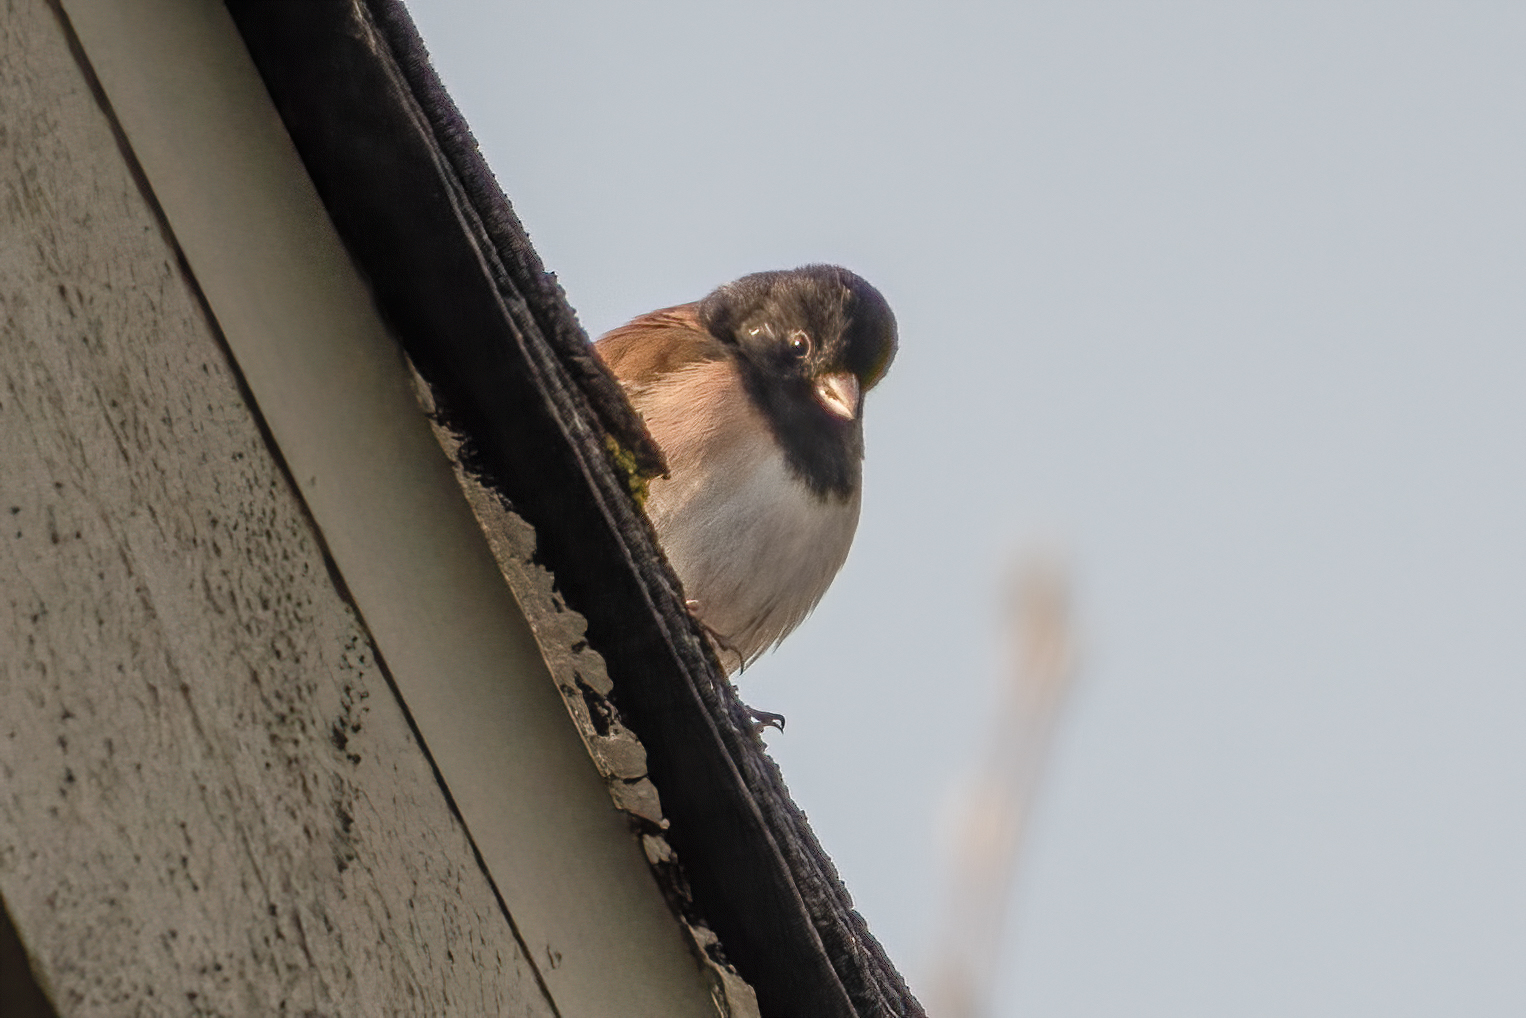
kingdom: Animalia
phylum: Chordata
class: Aves
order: Passeriformes
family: Passerellidae
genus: Junco
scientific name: Junco hyemalis
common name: Dark-eyed junco
